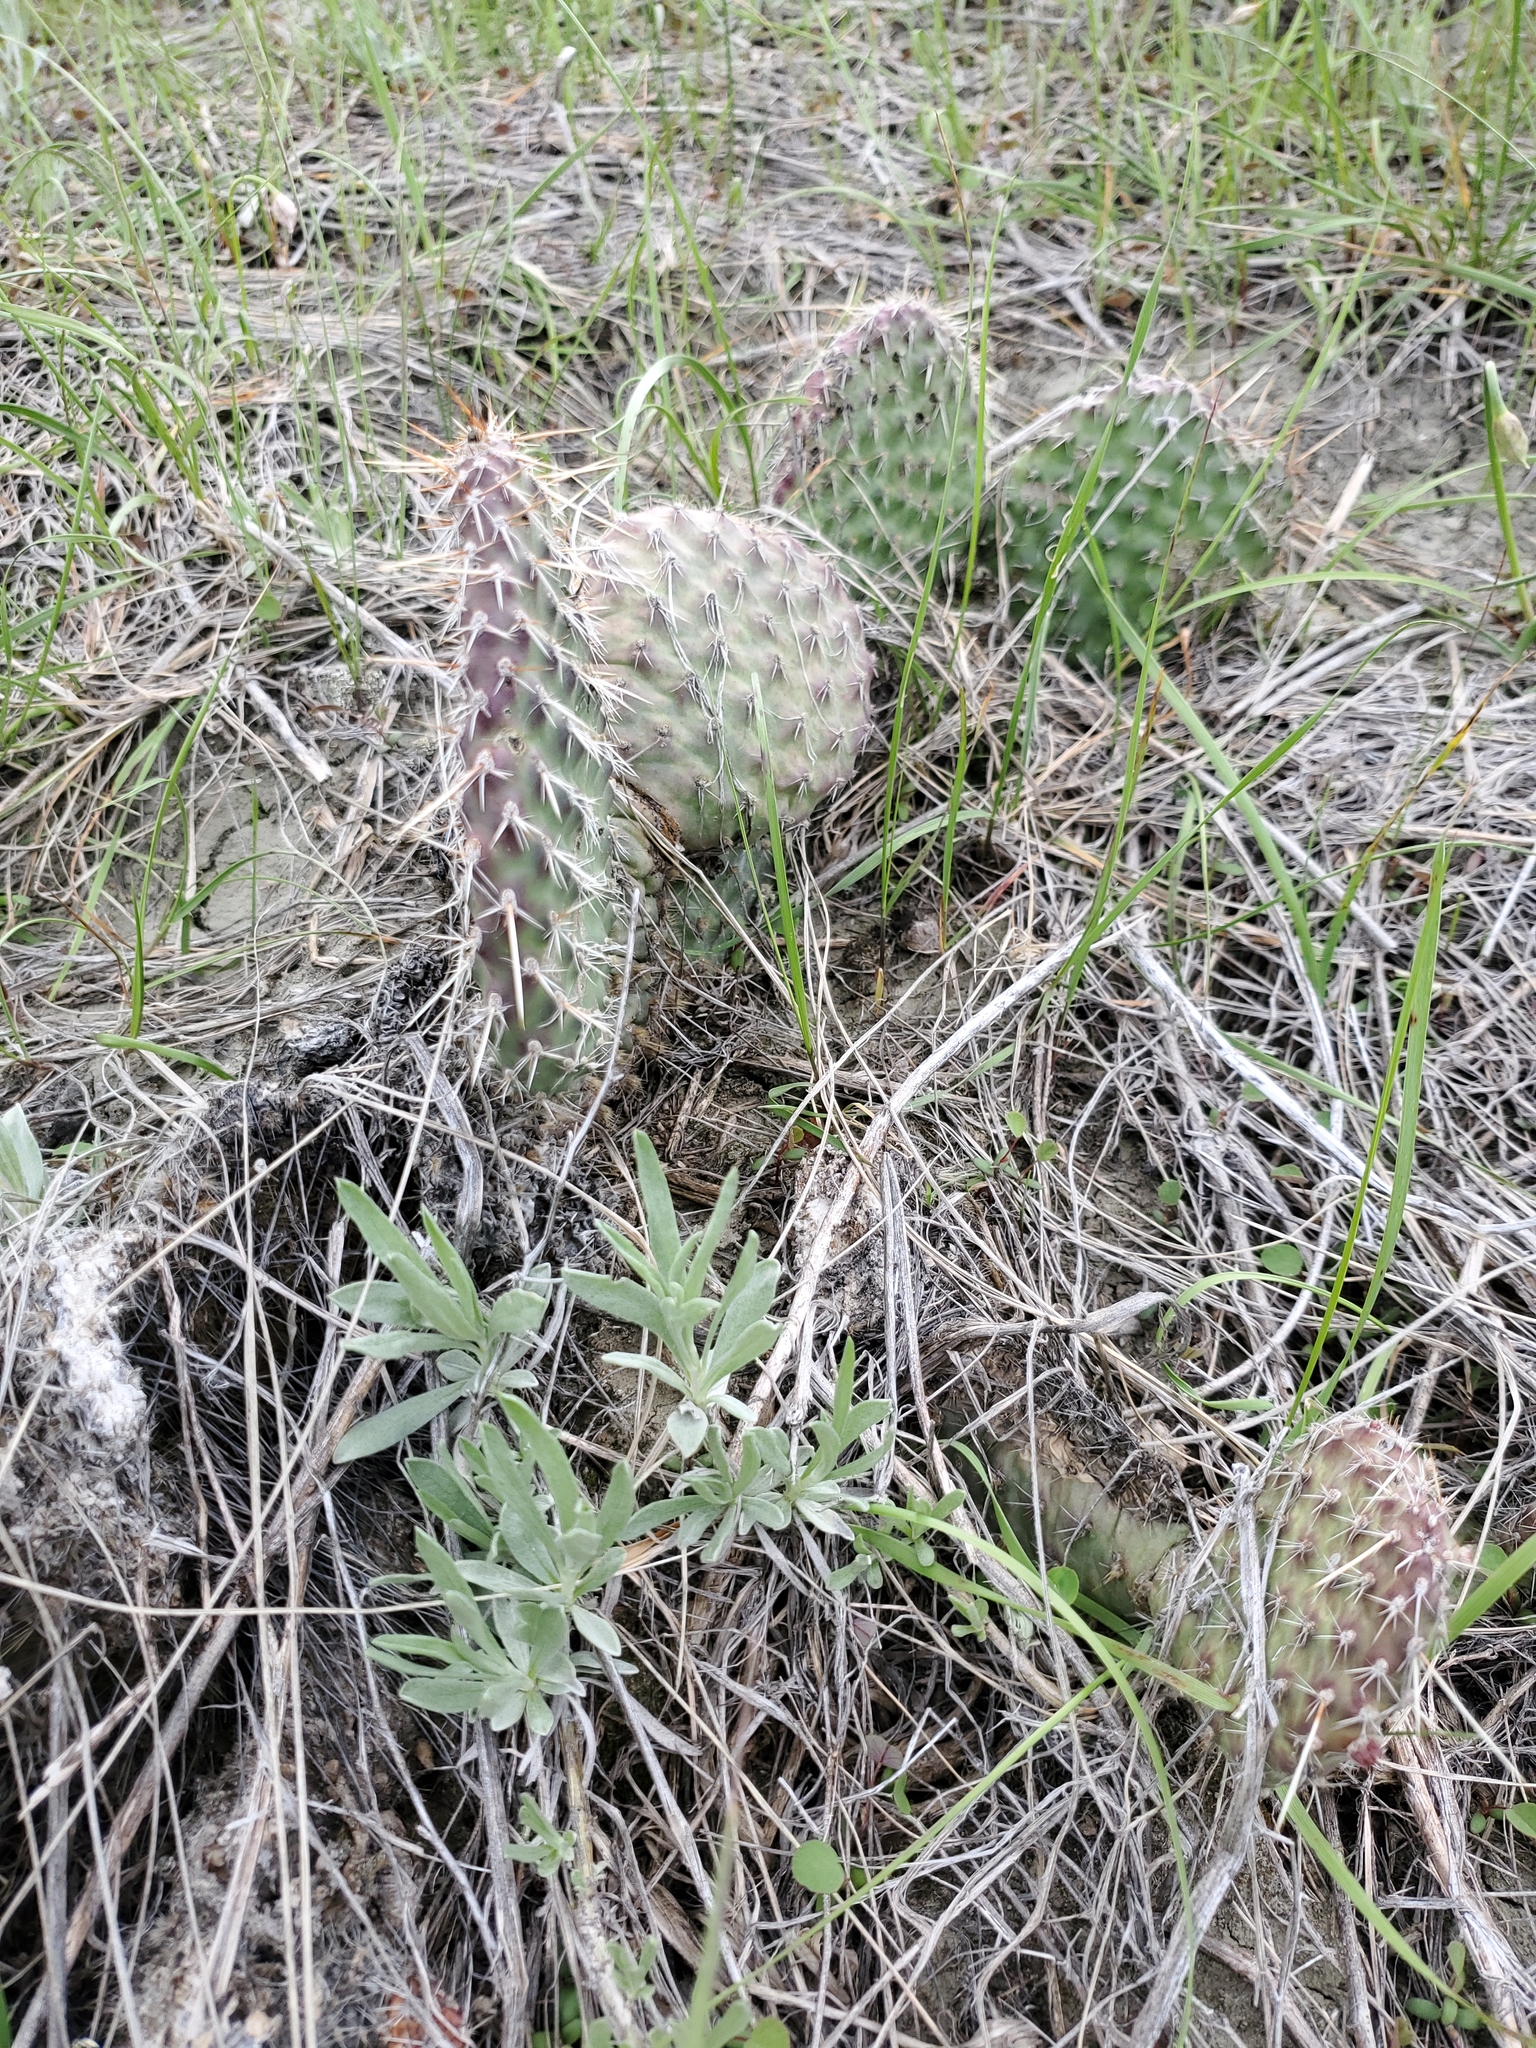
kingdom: Plantae
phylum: Tracheophyta
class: Magnoliopsida
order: Caryophyllales
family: Cactaceae
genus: Opuntia
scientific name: Opuntia polyacantha
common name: Plains prickly-pear
